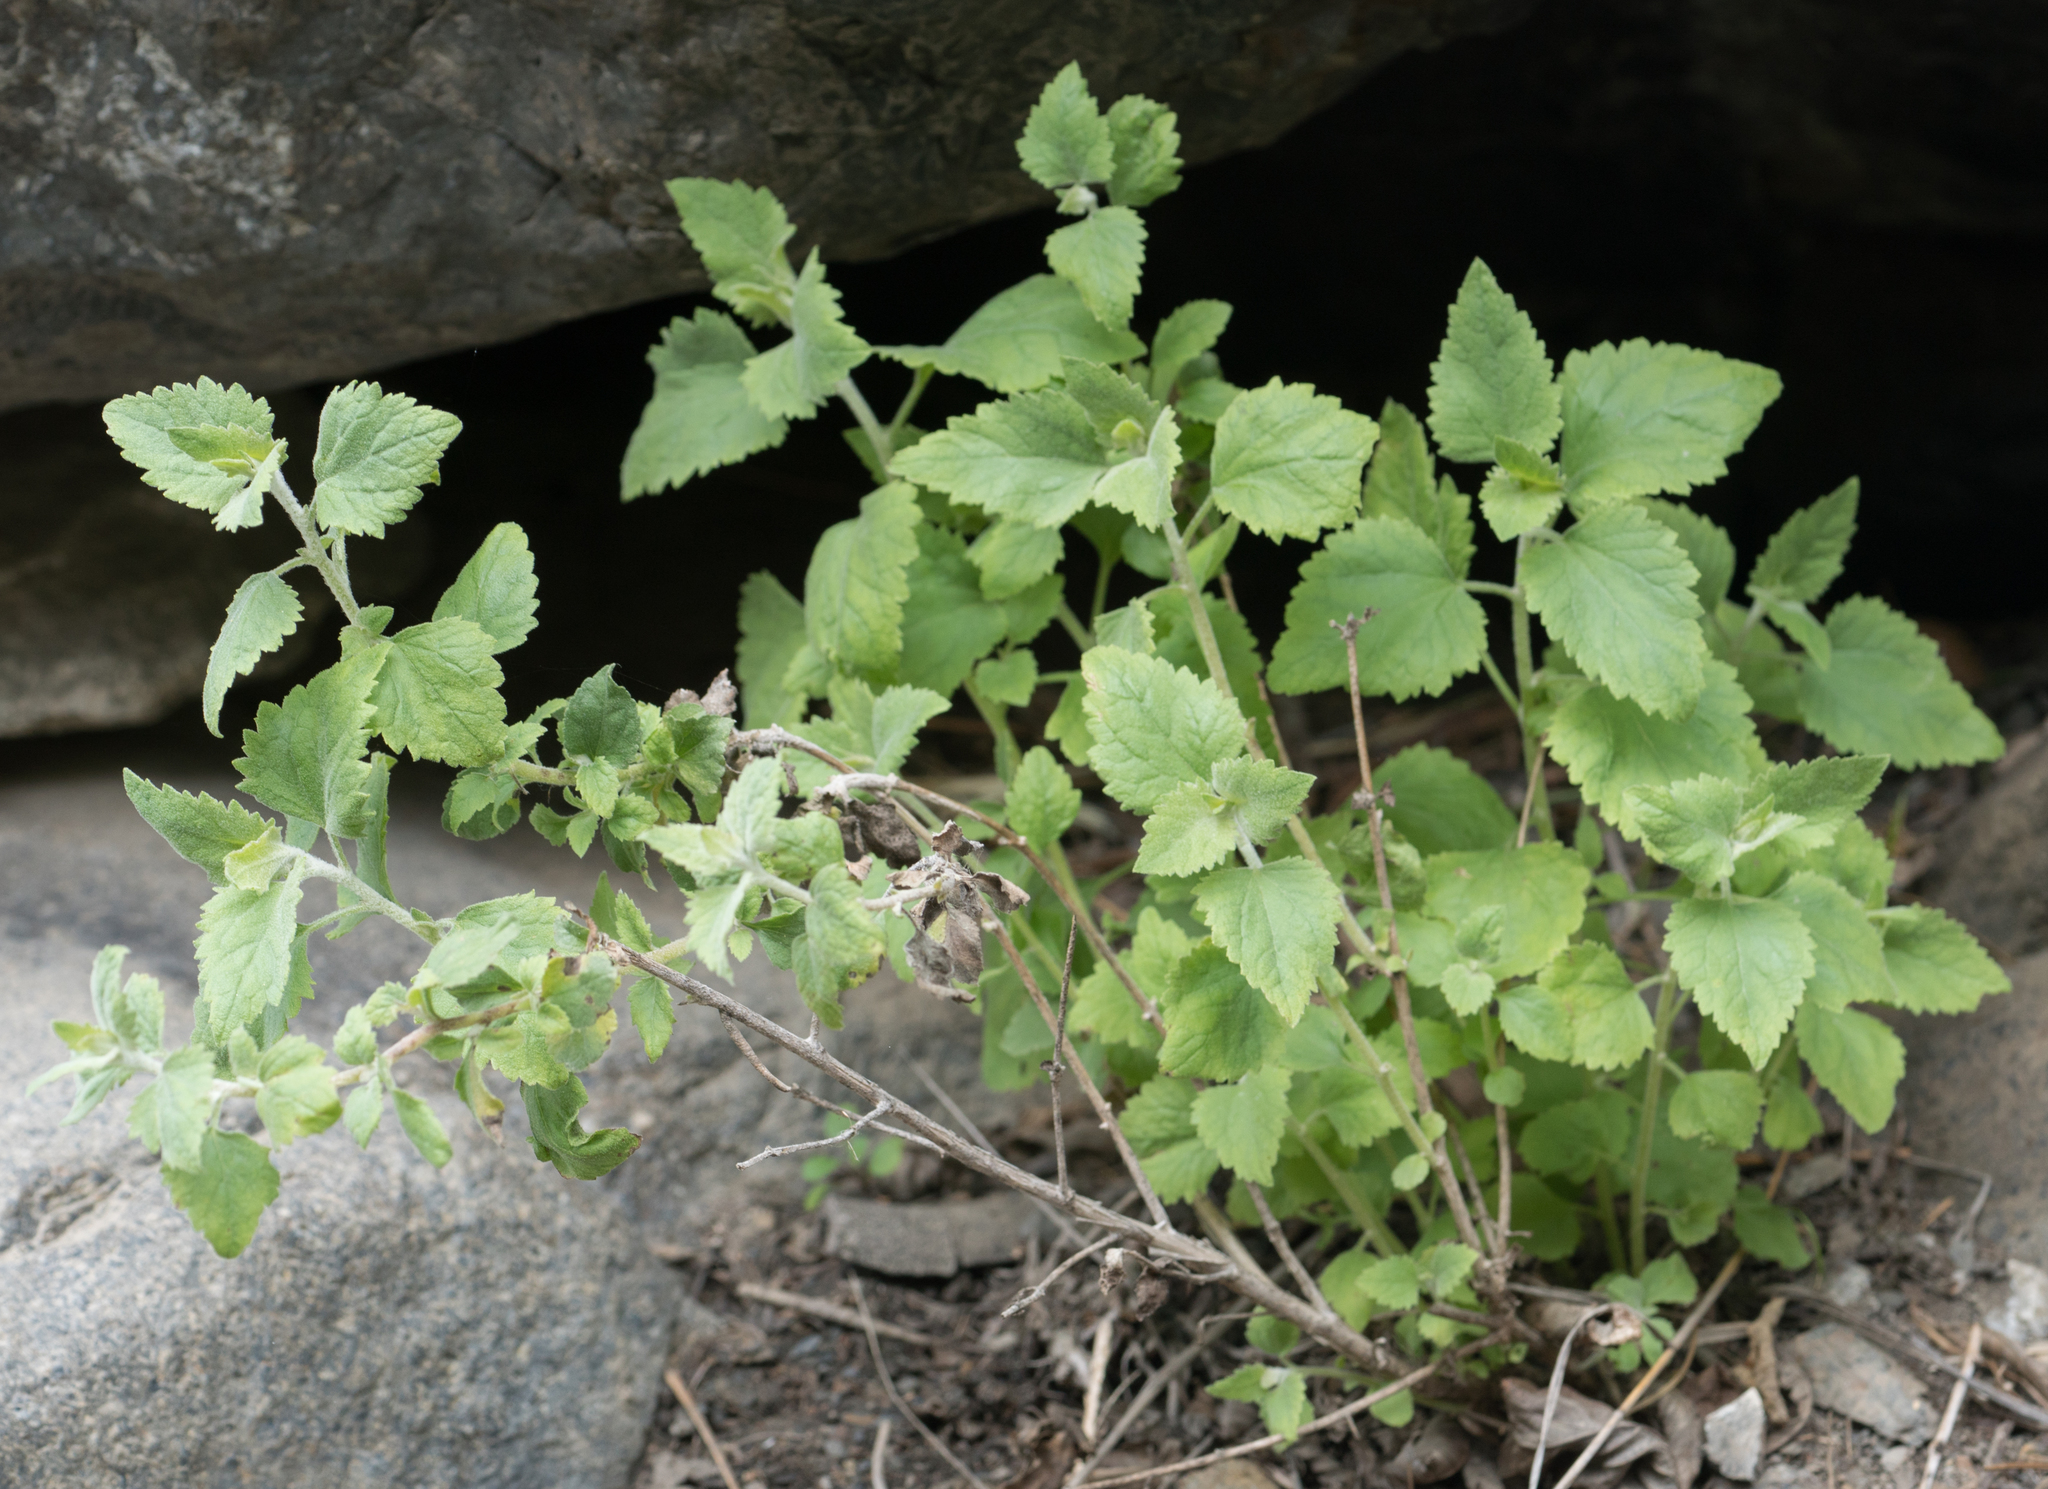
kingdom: Plantae
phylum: Tracheophyta
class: Magnoliopsida
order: Asterales
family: Asteraceae
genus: Brickellia
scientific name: Brickellia californica
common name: California brickellbush
